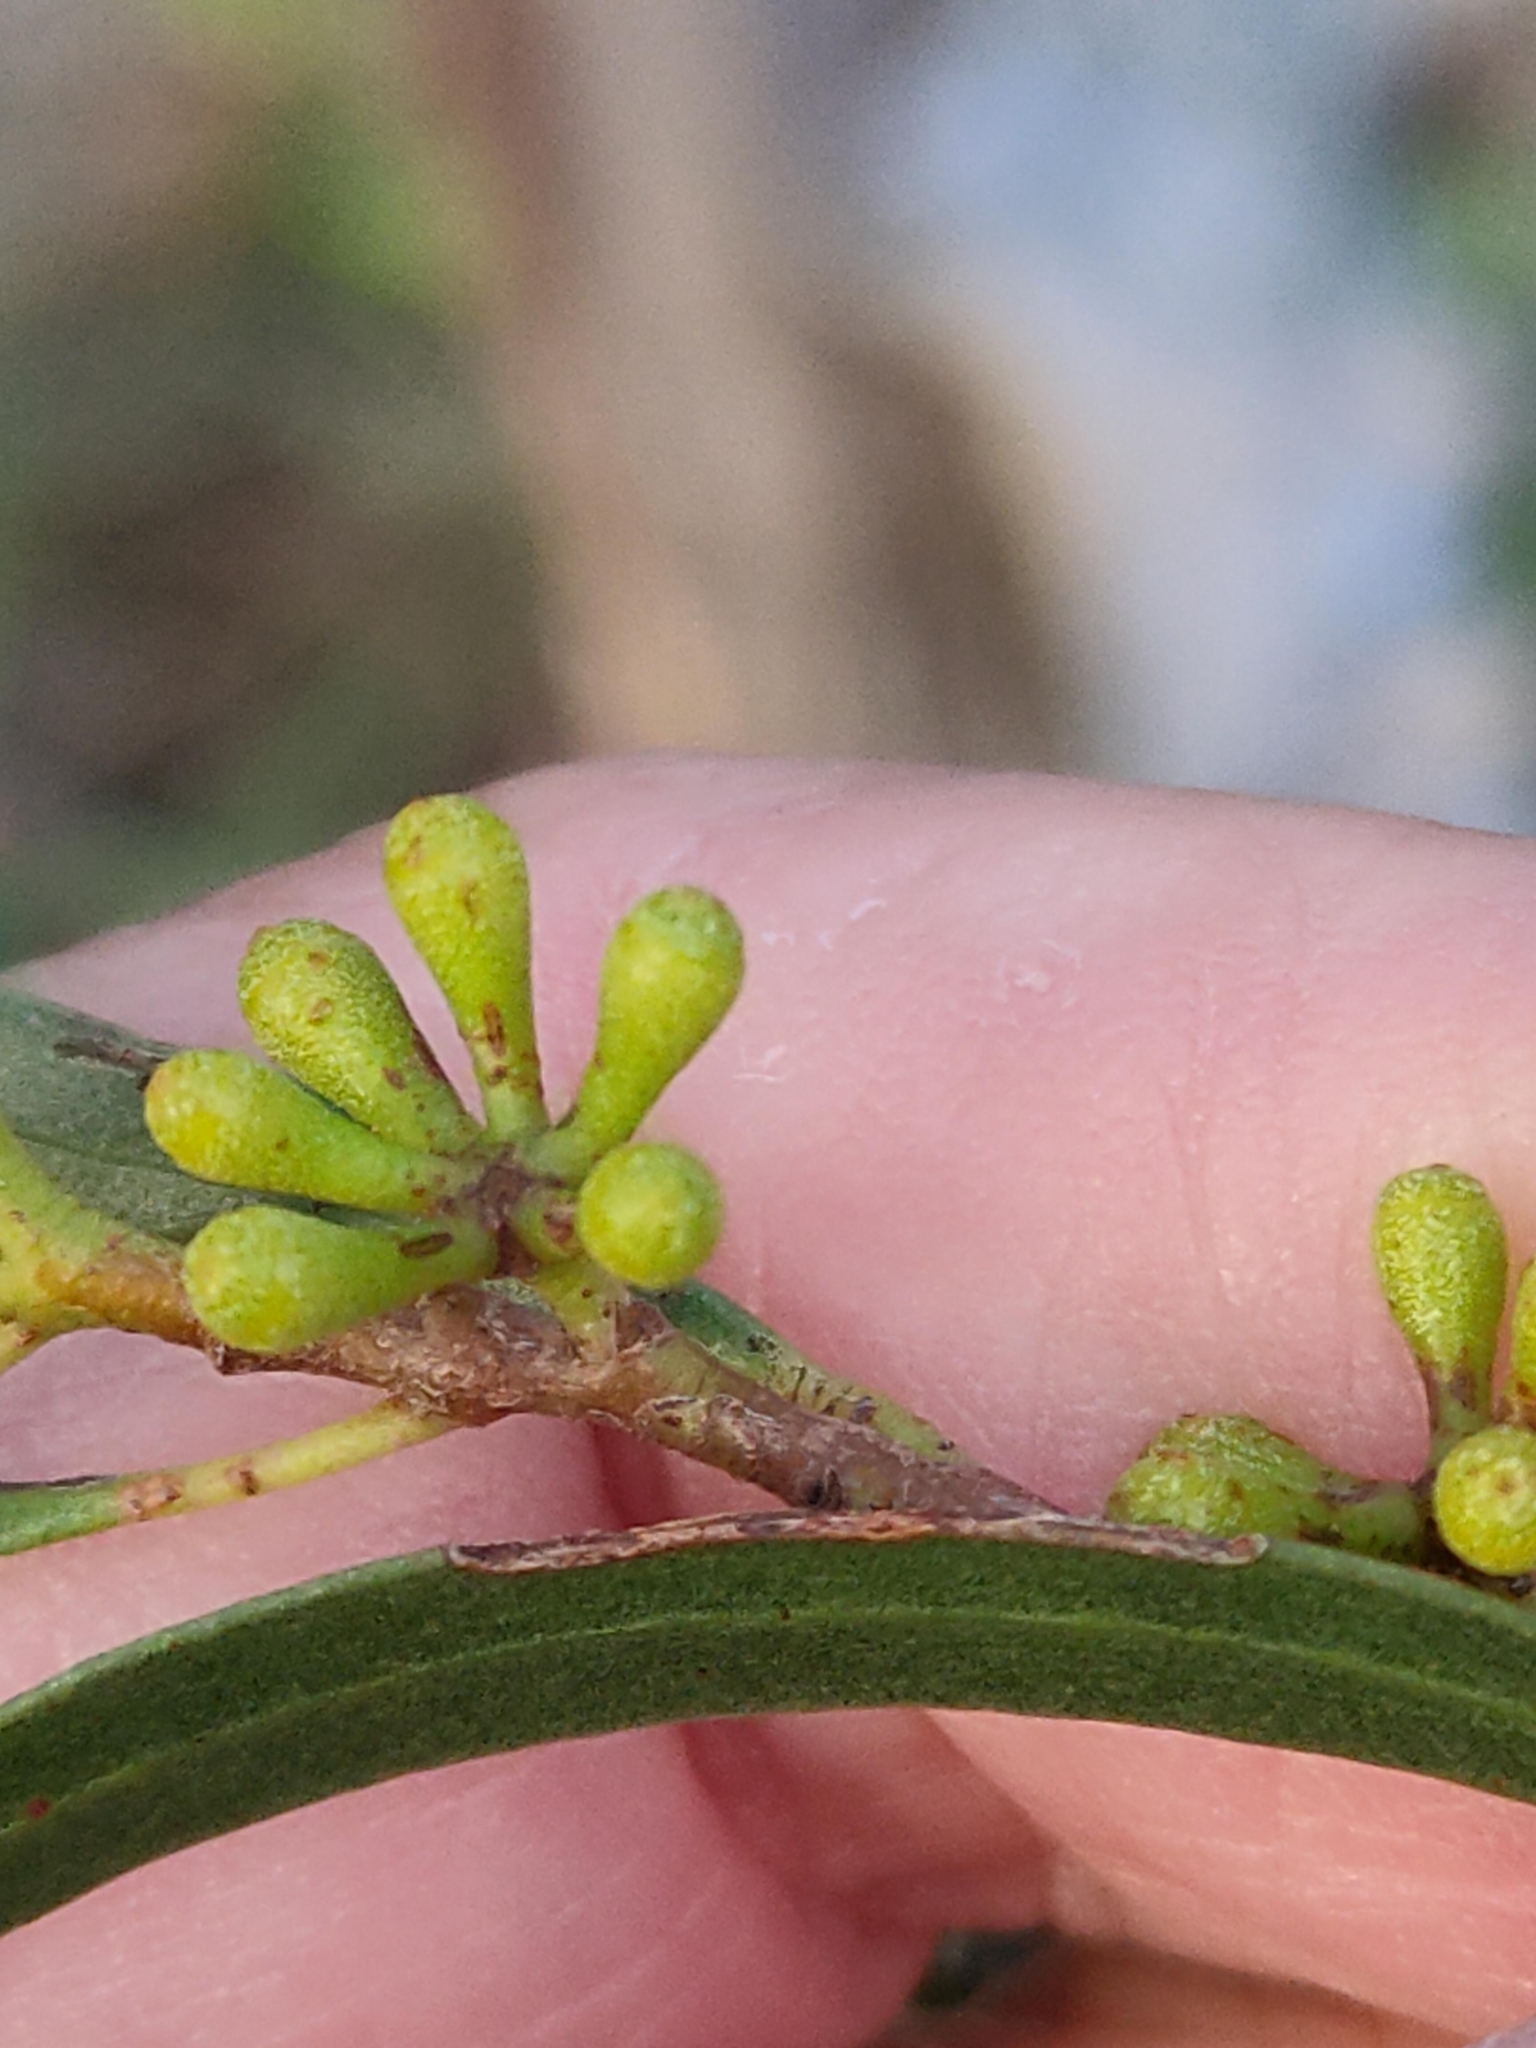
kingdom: Plantae
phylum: Tracheophyta
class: Magnoliopsida
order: Myrtales
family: Myrtaceae
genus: Eucalyptus
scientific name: Eucalyptus amygdalina
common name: Black peppermint
